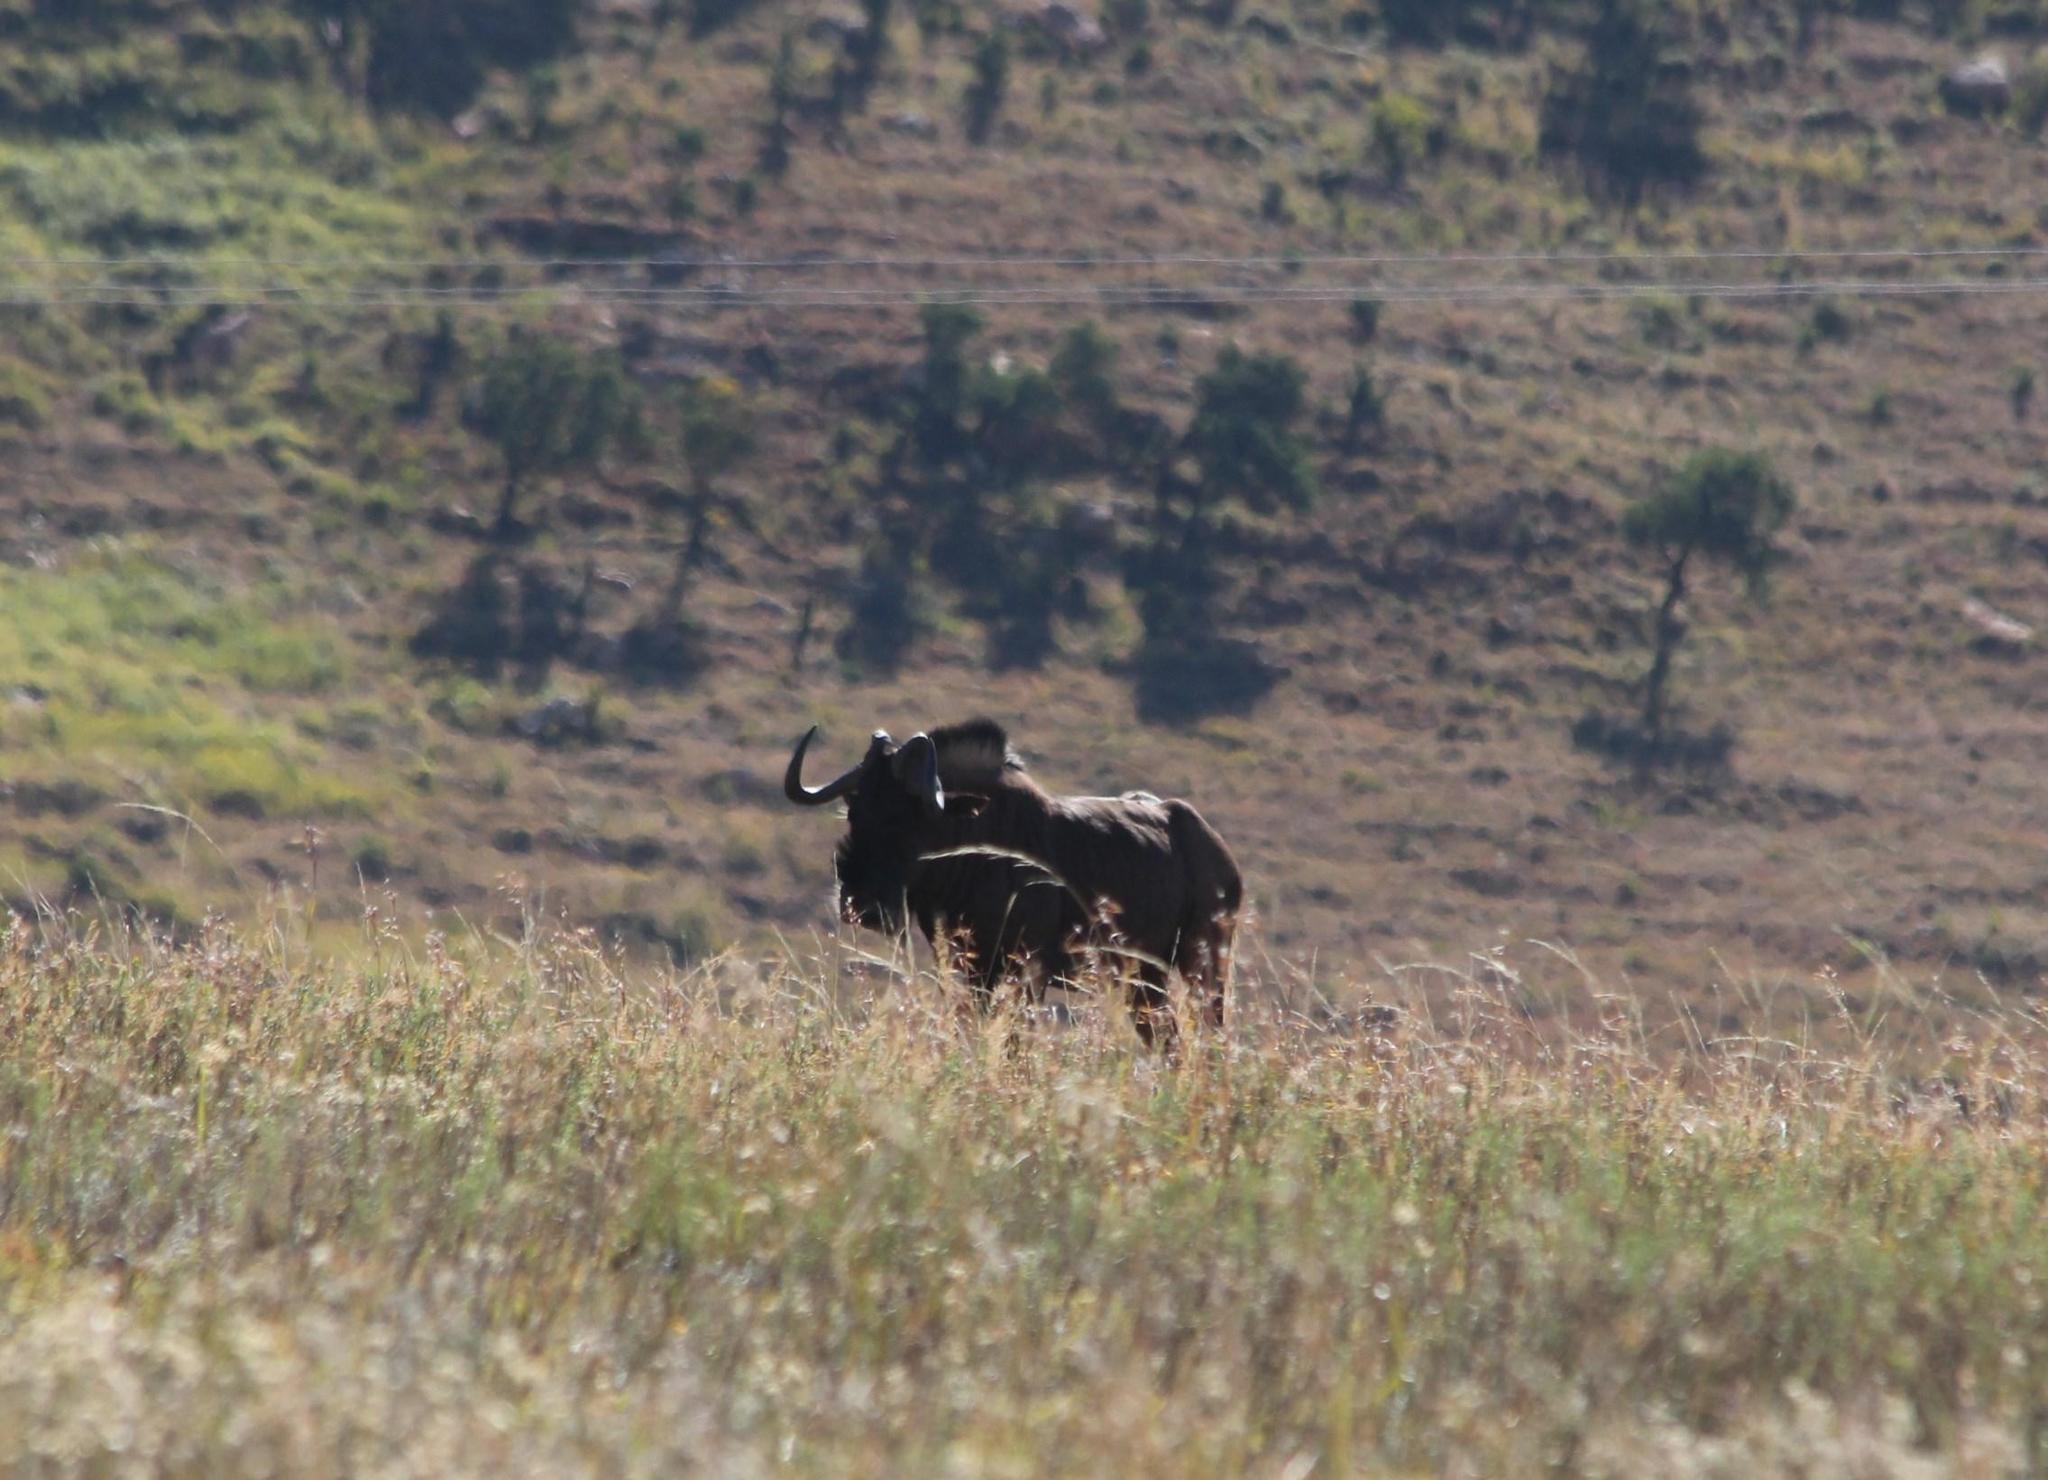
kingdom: Animalia
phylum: Chordata
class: Mammalia
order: Artiodactyla
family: Bovidae
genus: Connochaetes
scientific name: Connochaetes gnou
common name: Black wildebeest
